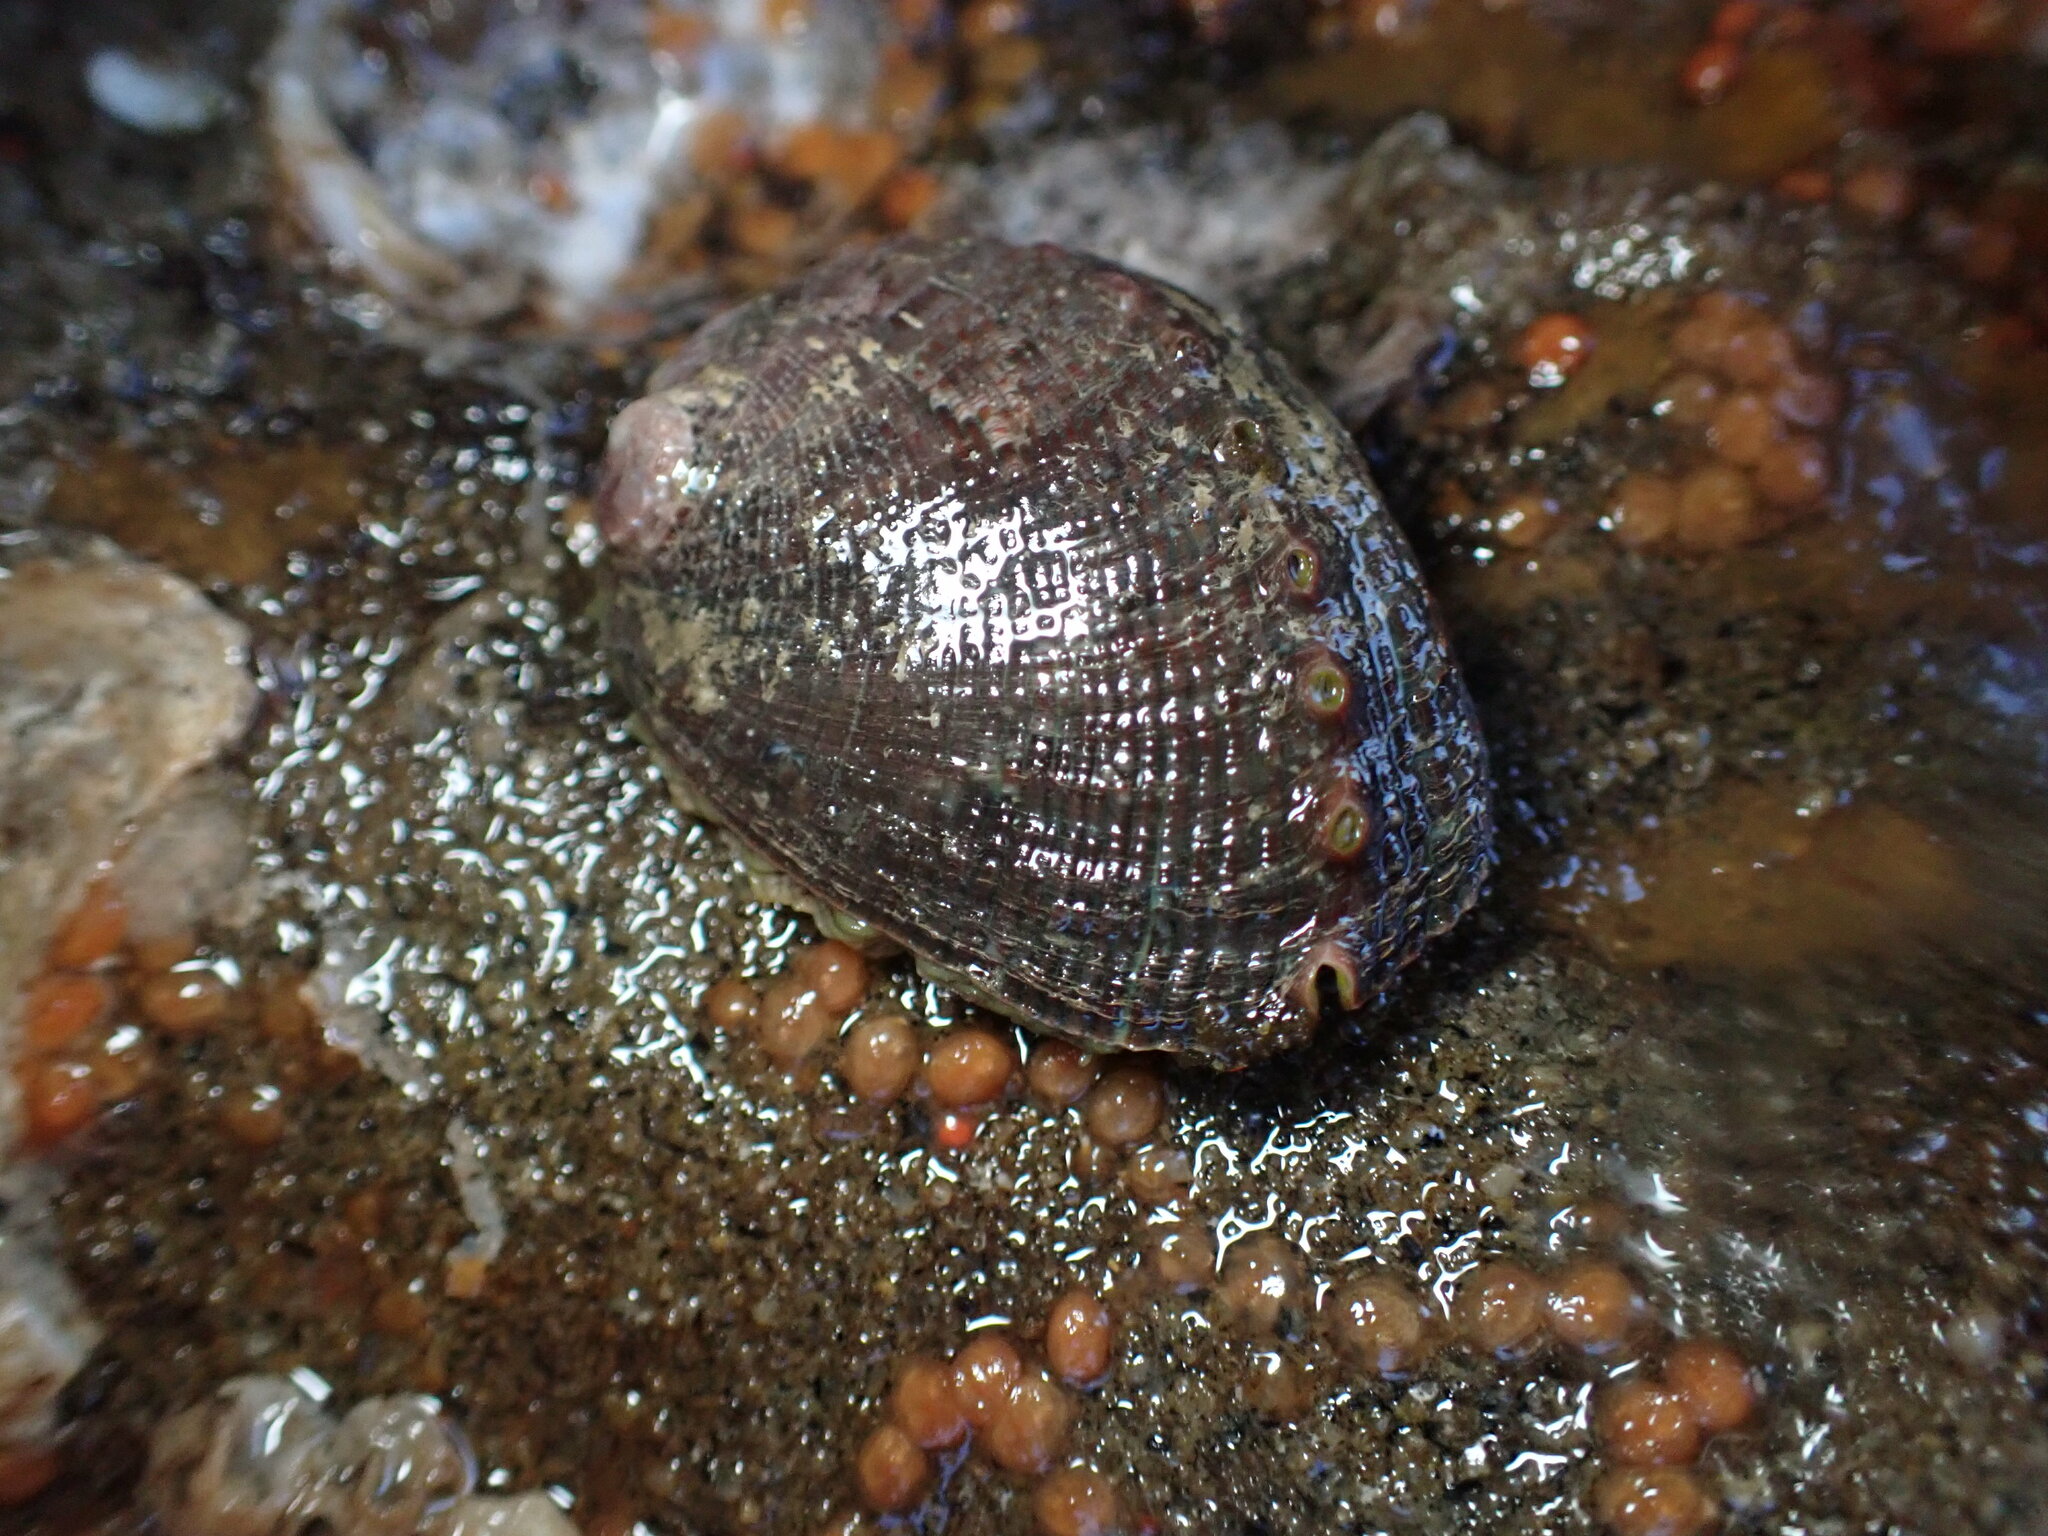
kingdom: Animalia
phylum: Mollusca
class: Gastropoda
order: Lepetellida
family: Haliotidae
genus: Haliotis
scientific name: Haliotis fulgens
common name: Green abalone
